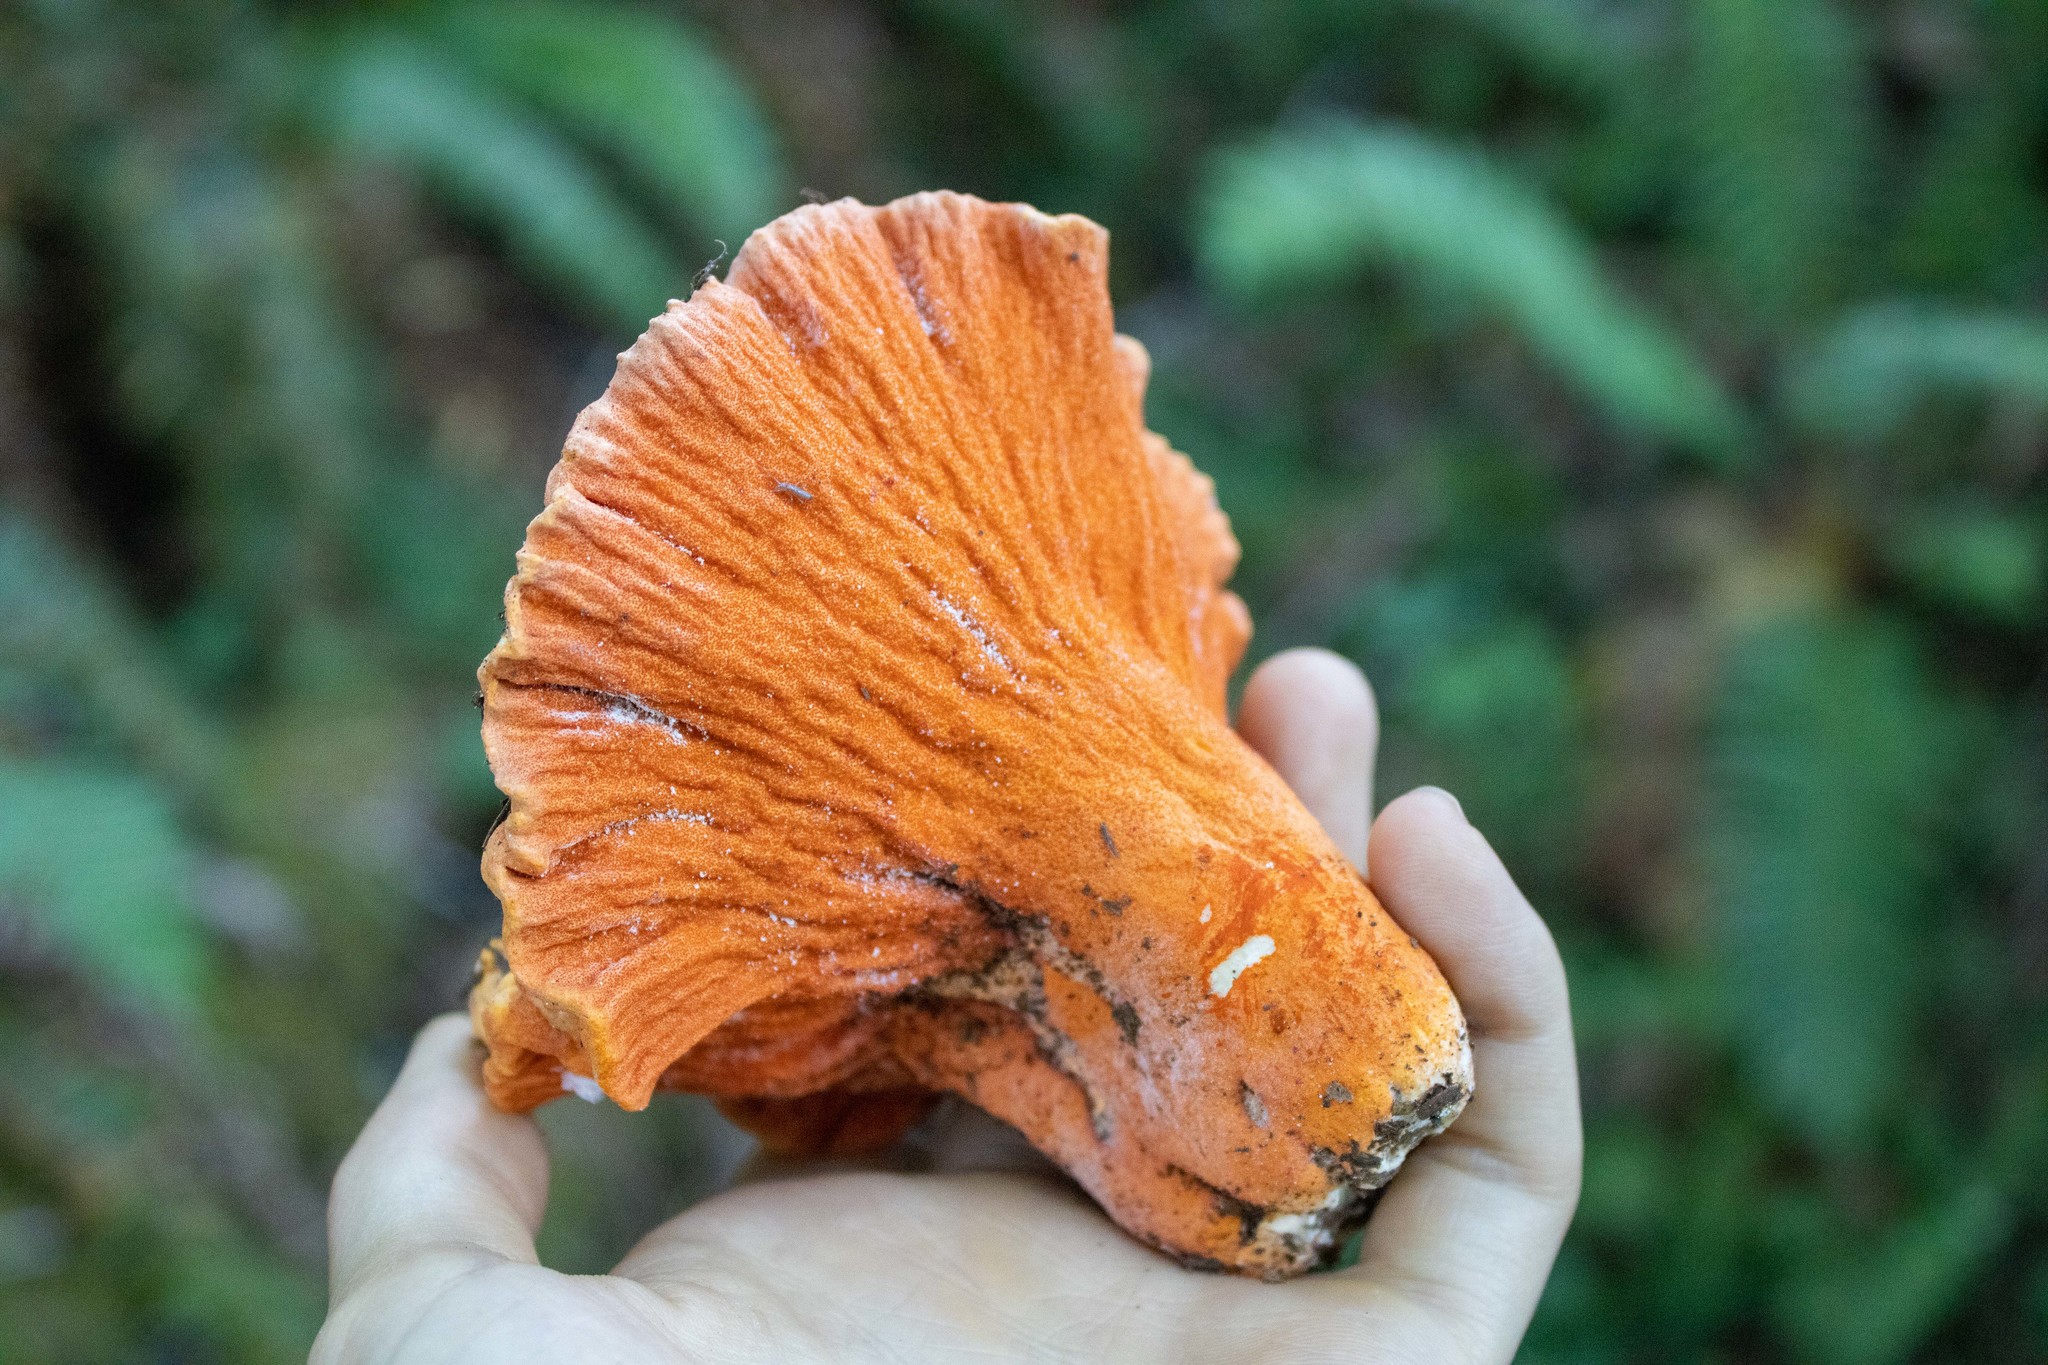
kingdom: Fungi
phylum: Ascomycota
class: Sordariomycetes
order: Hypocreales
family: Hypocreaceae
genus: Hypomyces
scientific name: Hypomyces lactifluorum
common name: Lobster mushroom
